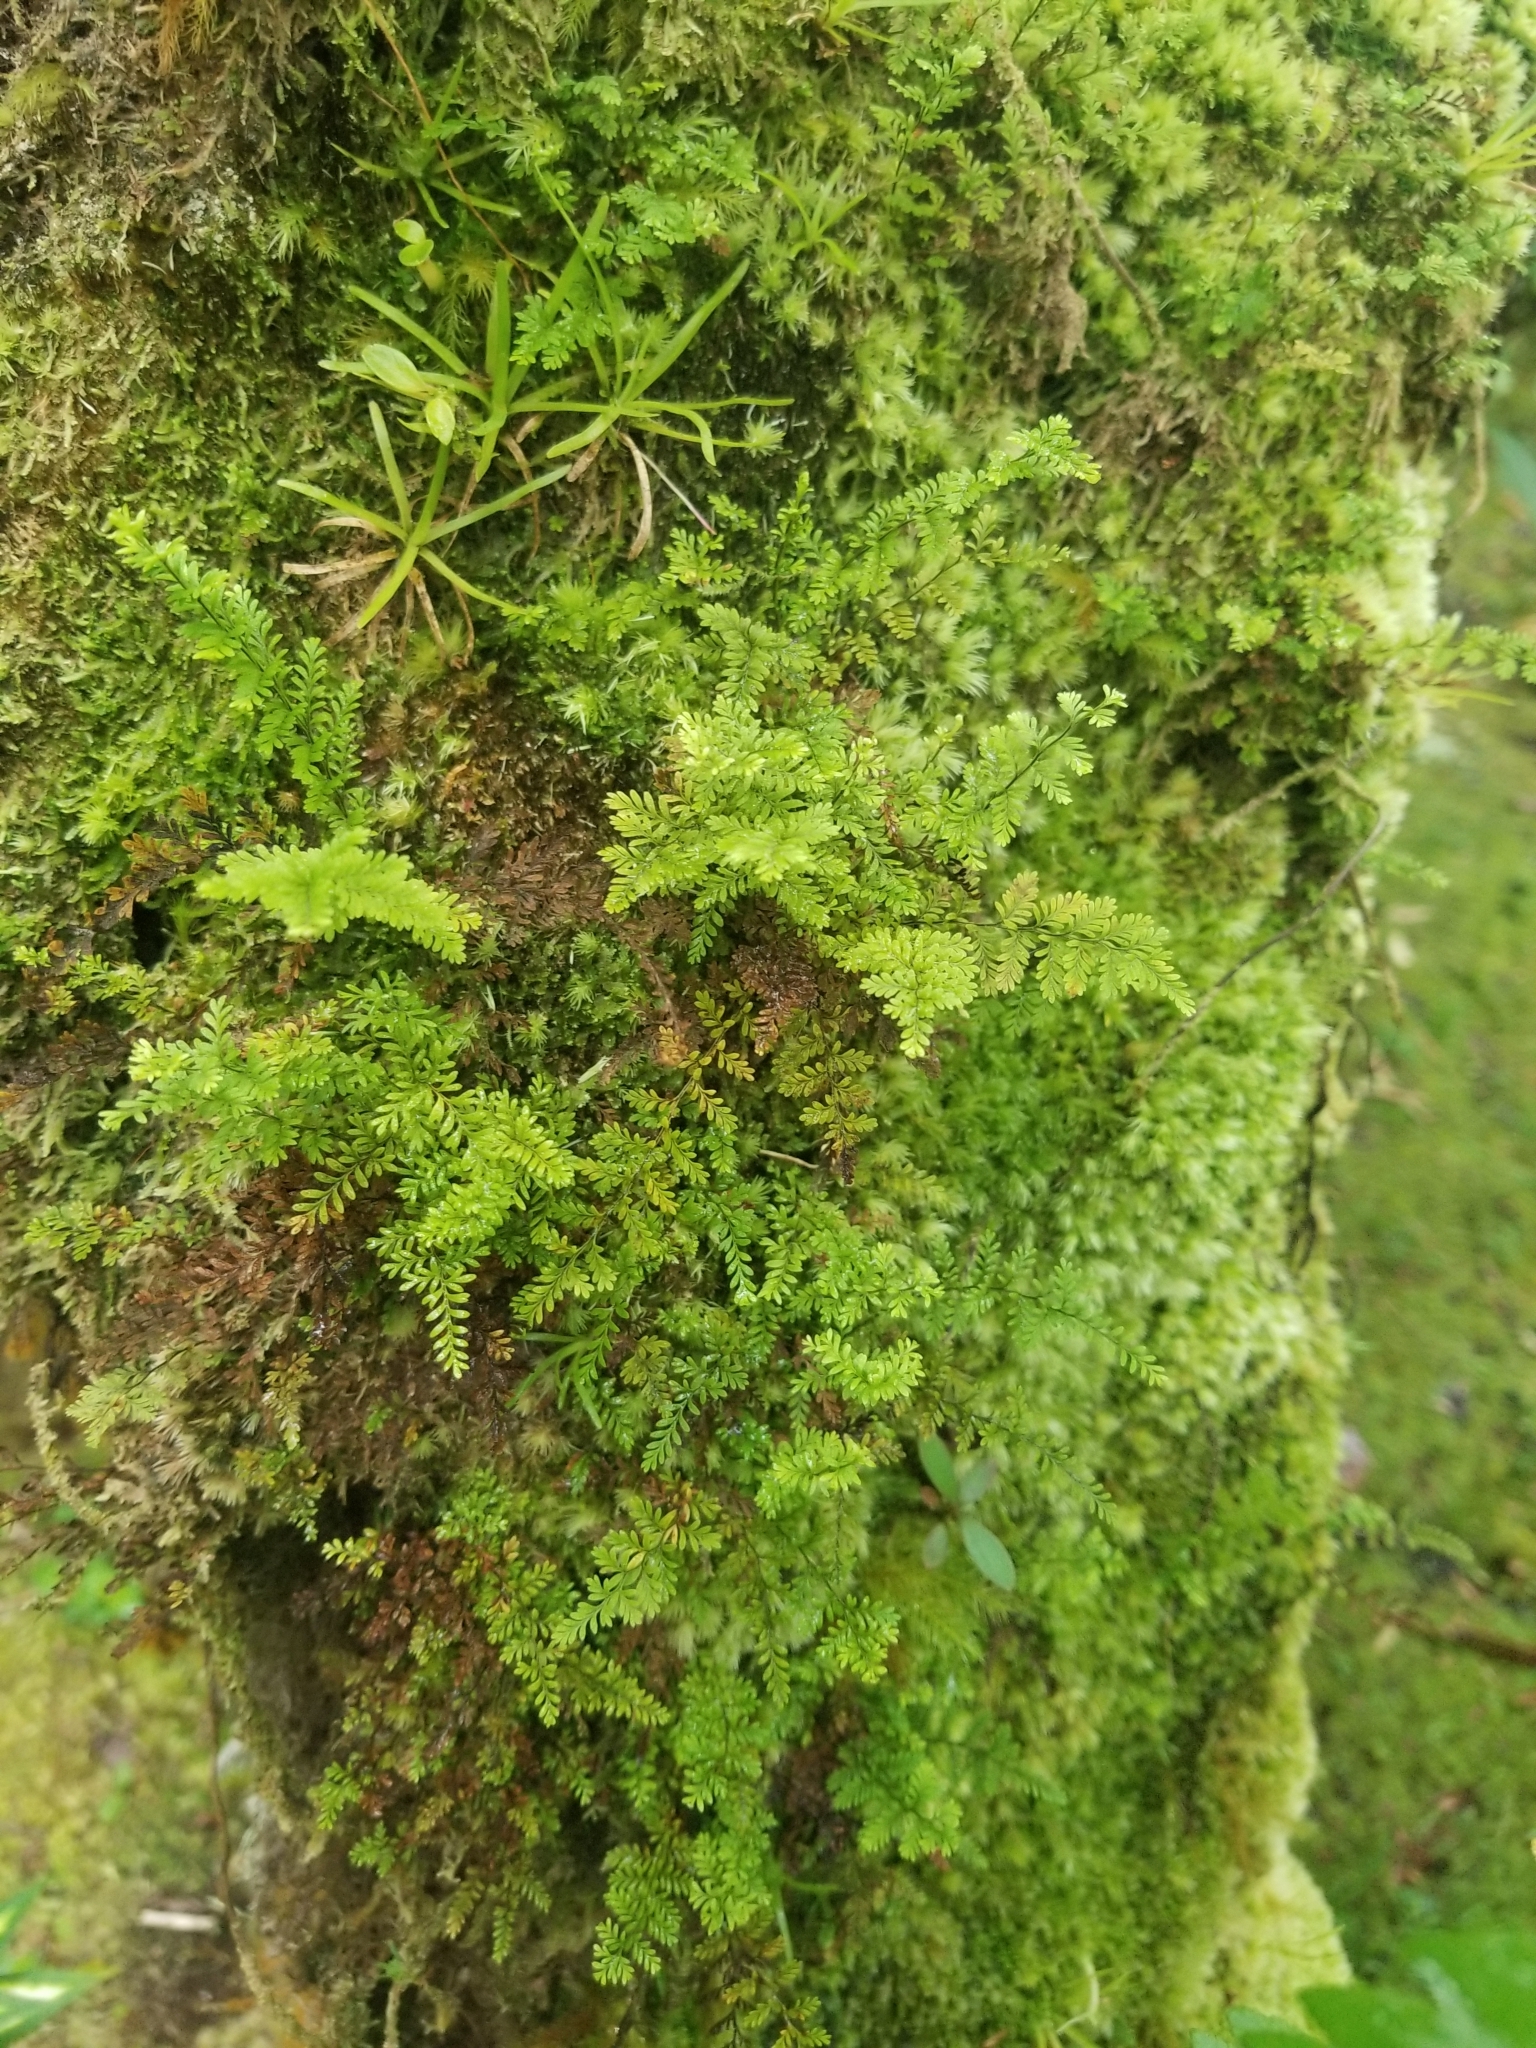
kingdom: Plantae
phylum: Tracheophyta
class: Polypodiopsida
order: Polypodiales
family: Polypodiaceae
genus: Adenophorus
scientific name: Adenophorus tamariscinus
